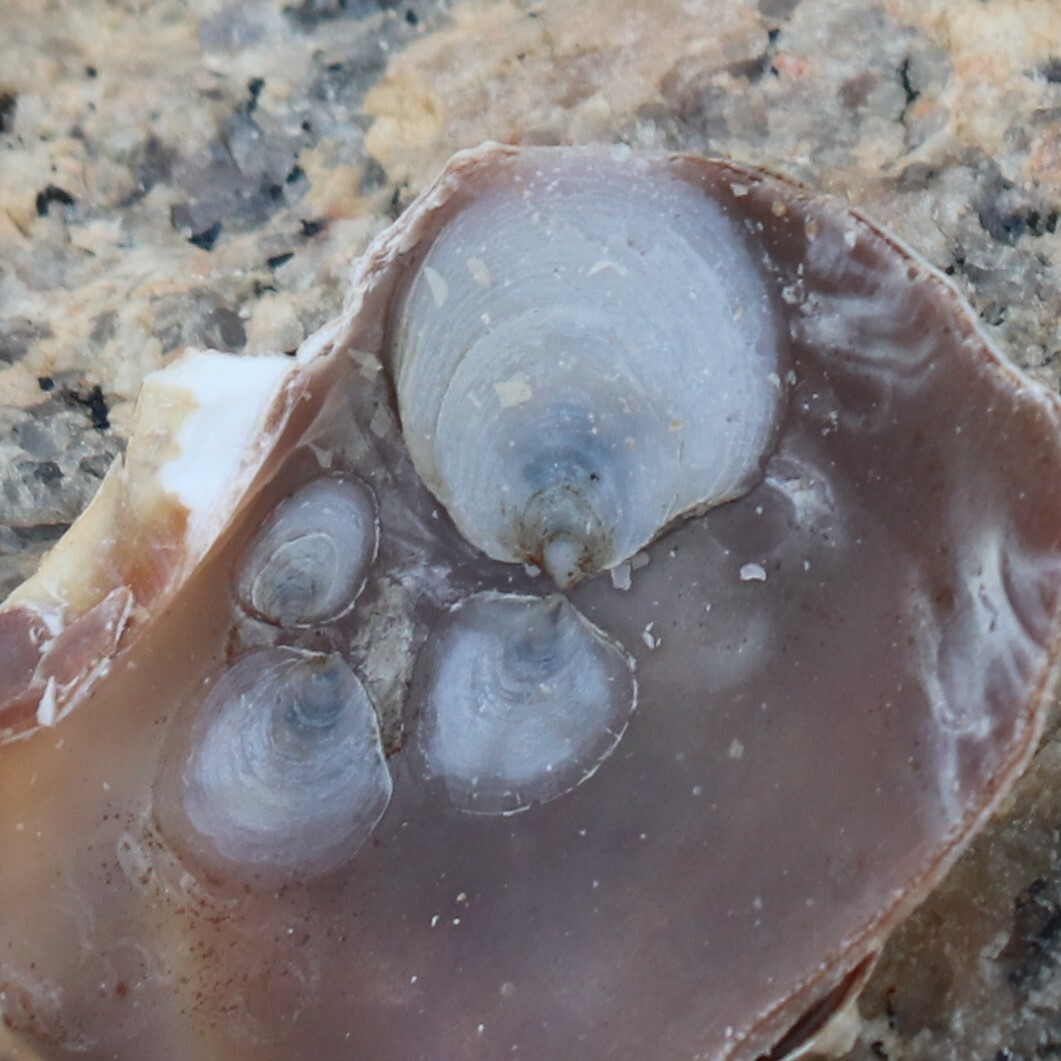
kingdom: Animalia
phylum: Mollusca
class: Gastropoda
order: Littorinimorpha
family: Calyptraeidae
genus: Crepidula
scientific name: Crepidula plana
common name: Eastern white slippersnail
